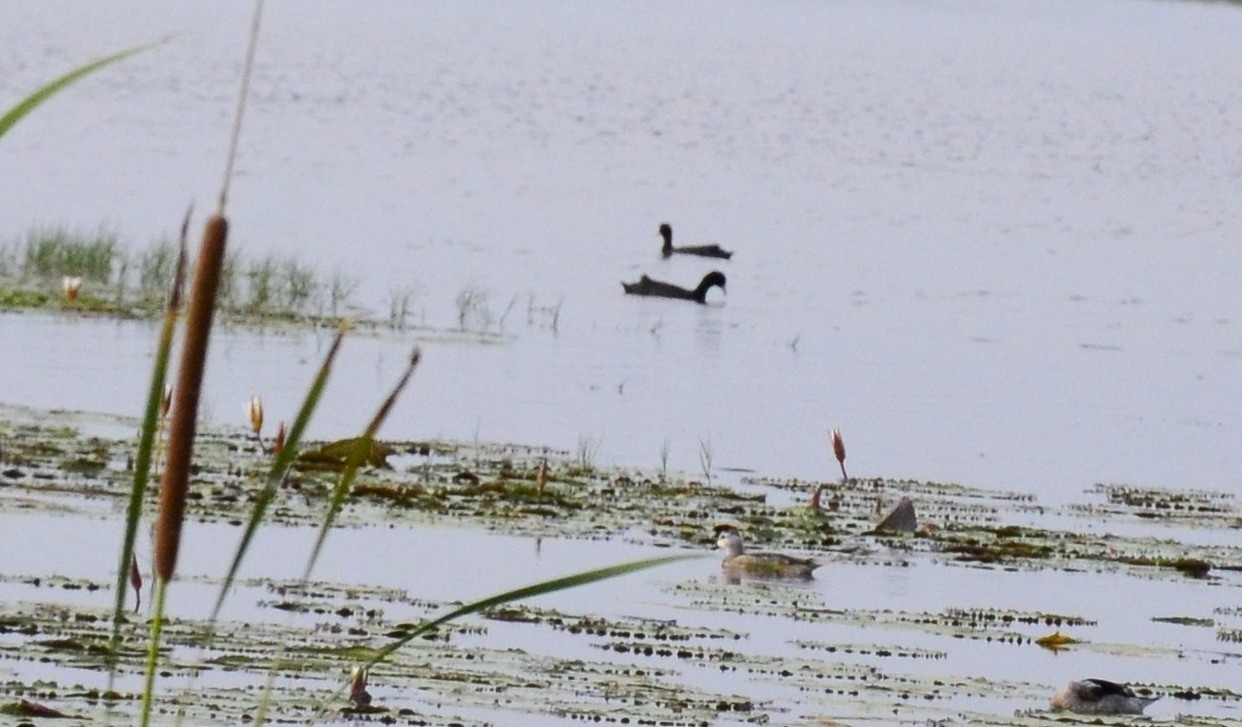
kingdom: Animalia
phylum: Chordata
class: Aves
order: Gruiformes
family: Rallidae
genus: Fulica
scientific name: Fulica atra
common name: Eurasian coot
